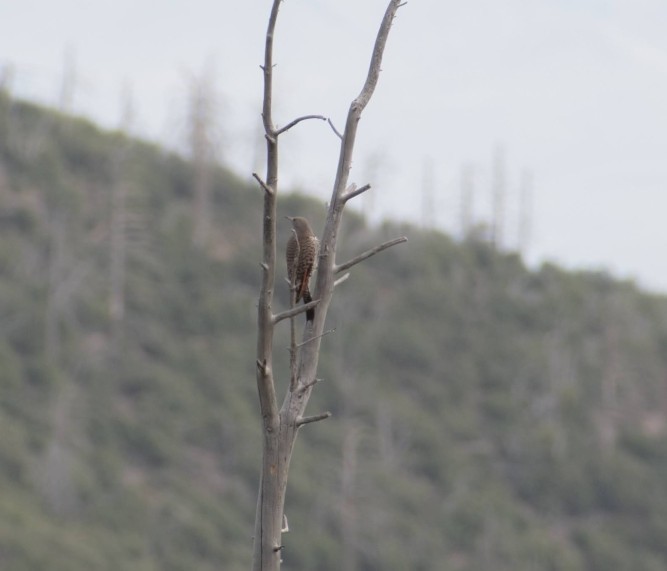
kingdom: Animalia
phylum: Chordata
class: Aves
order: Piciformes
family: Picidae
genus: Colaptes
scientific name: Colaptes auratus
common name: Northern flicker
